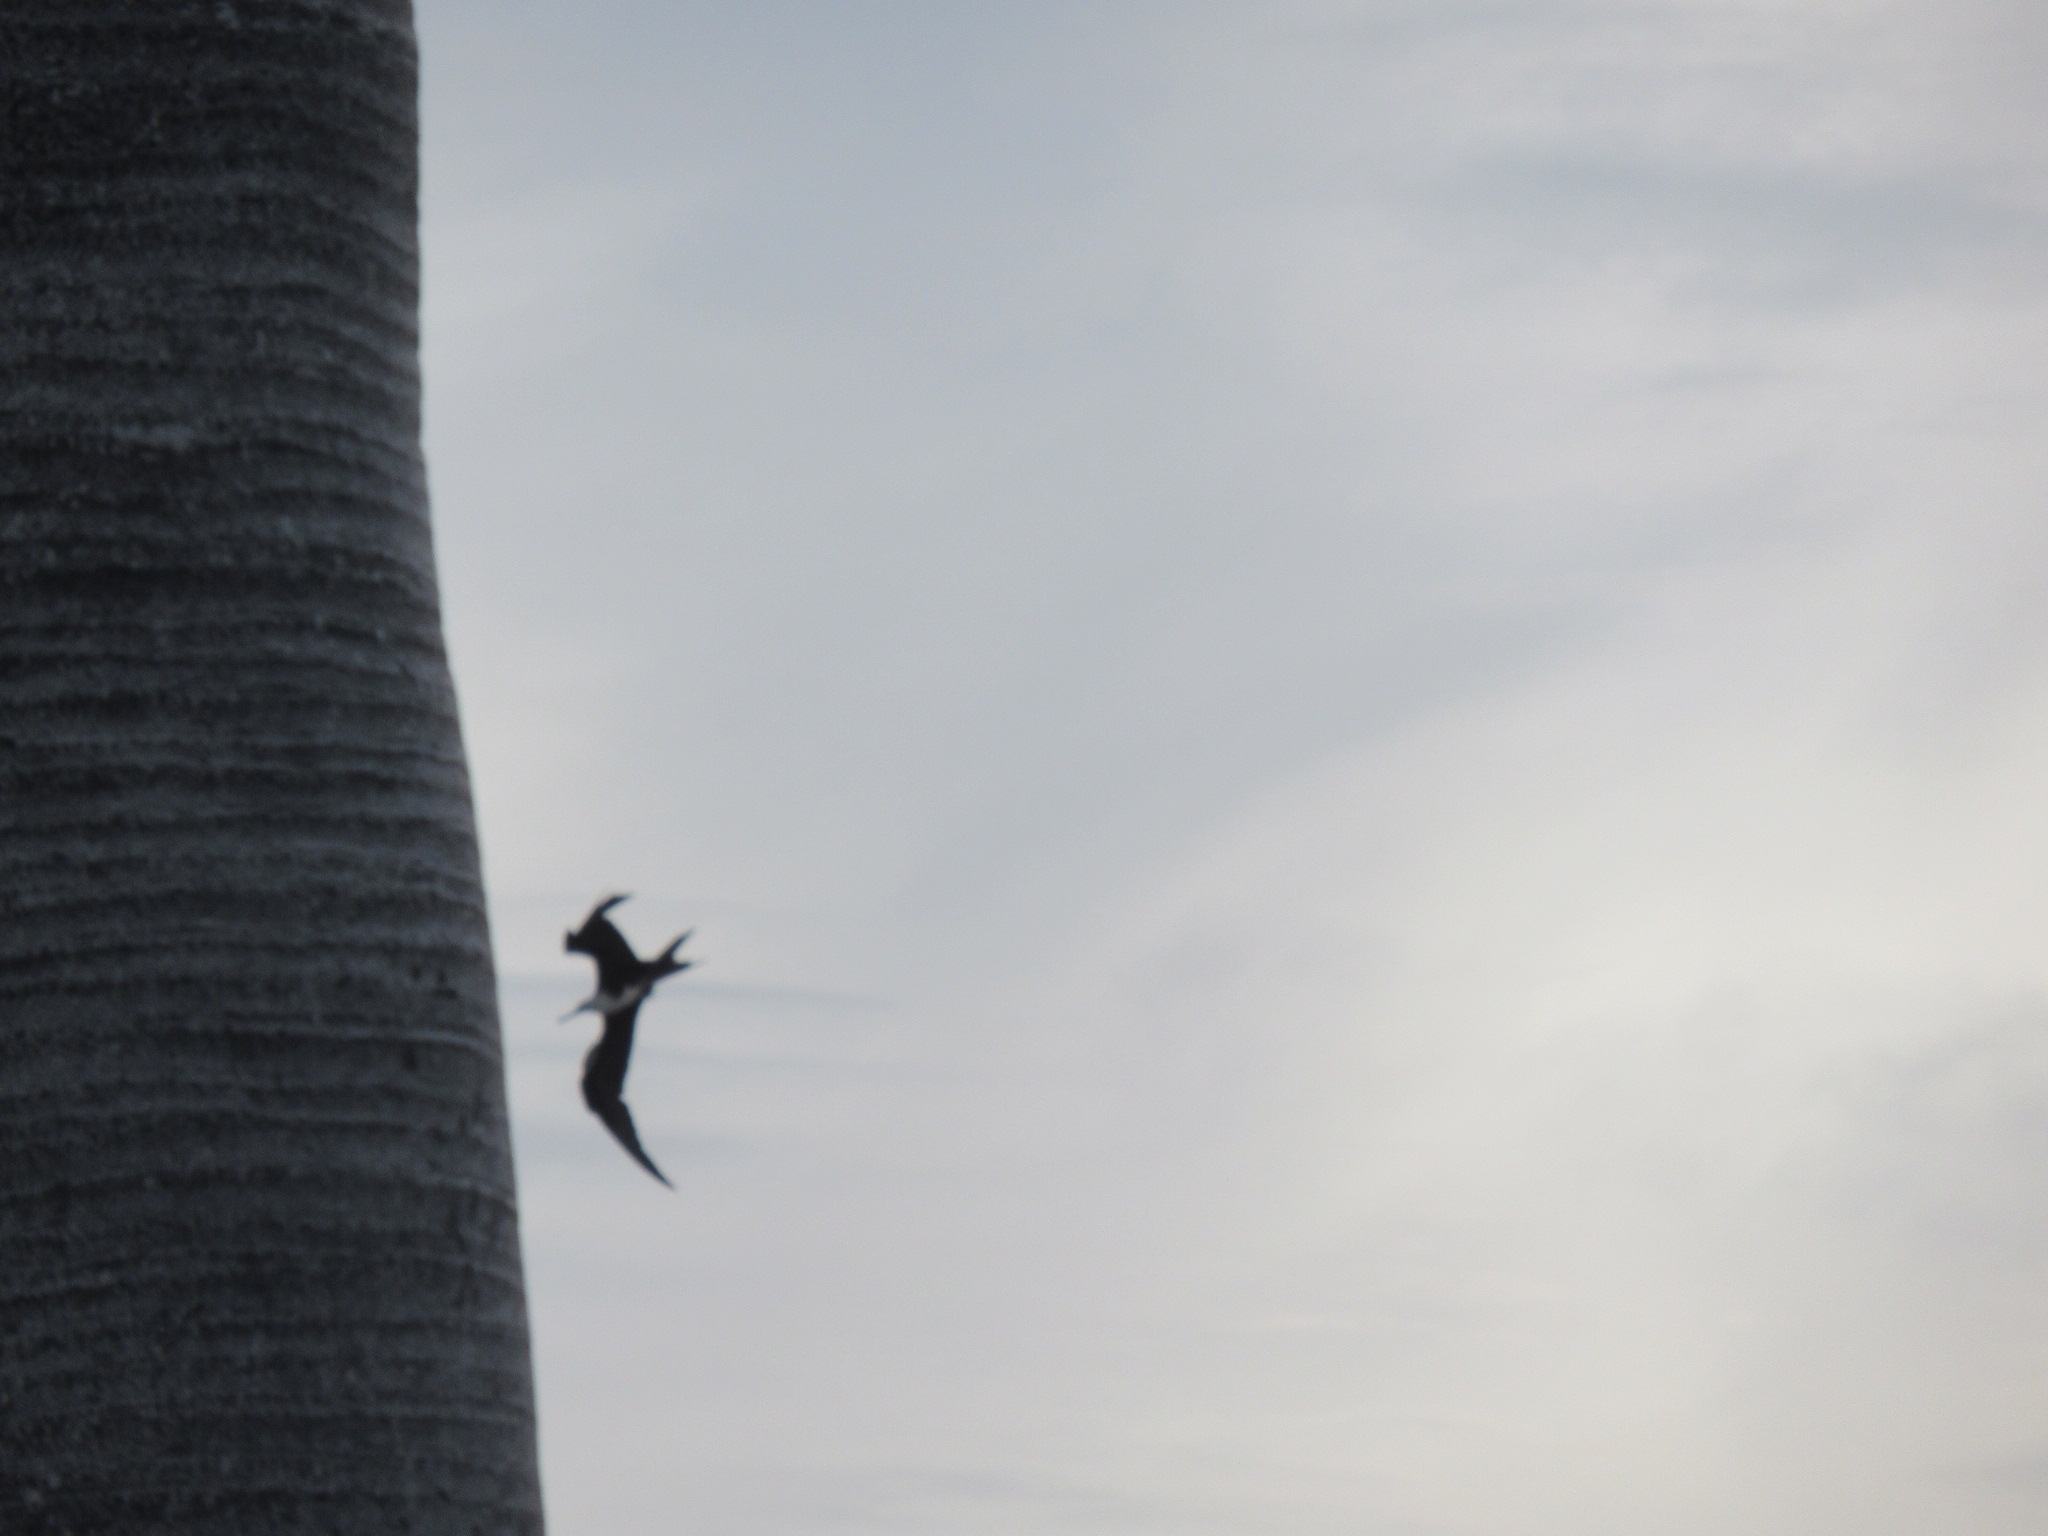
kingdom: Animalia
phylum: Chordata
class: Aves
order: Suliformes
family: Fregatidae
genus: Fregata
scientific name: Fregata magnificens
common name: Magnificent frigatebird
